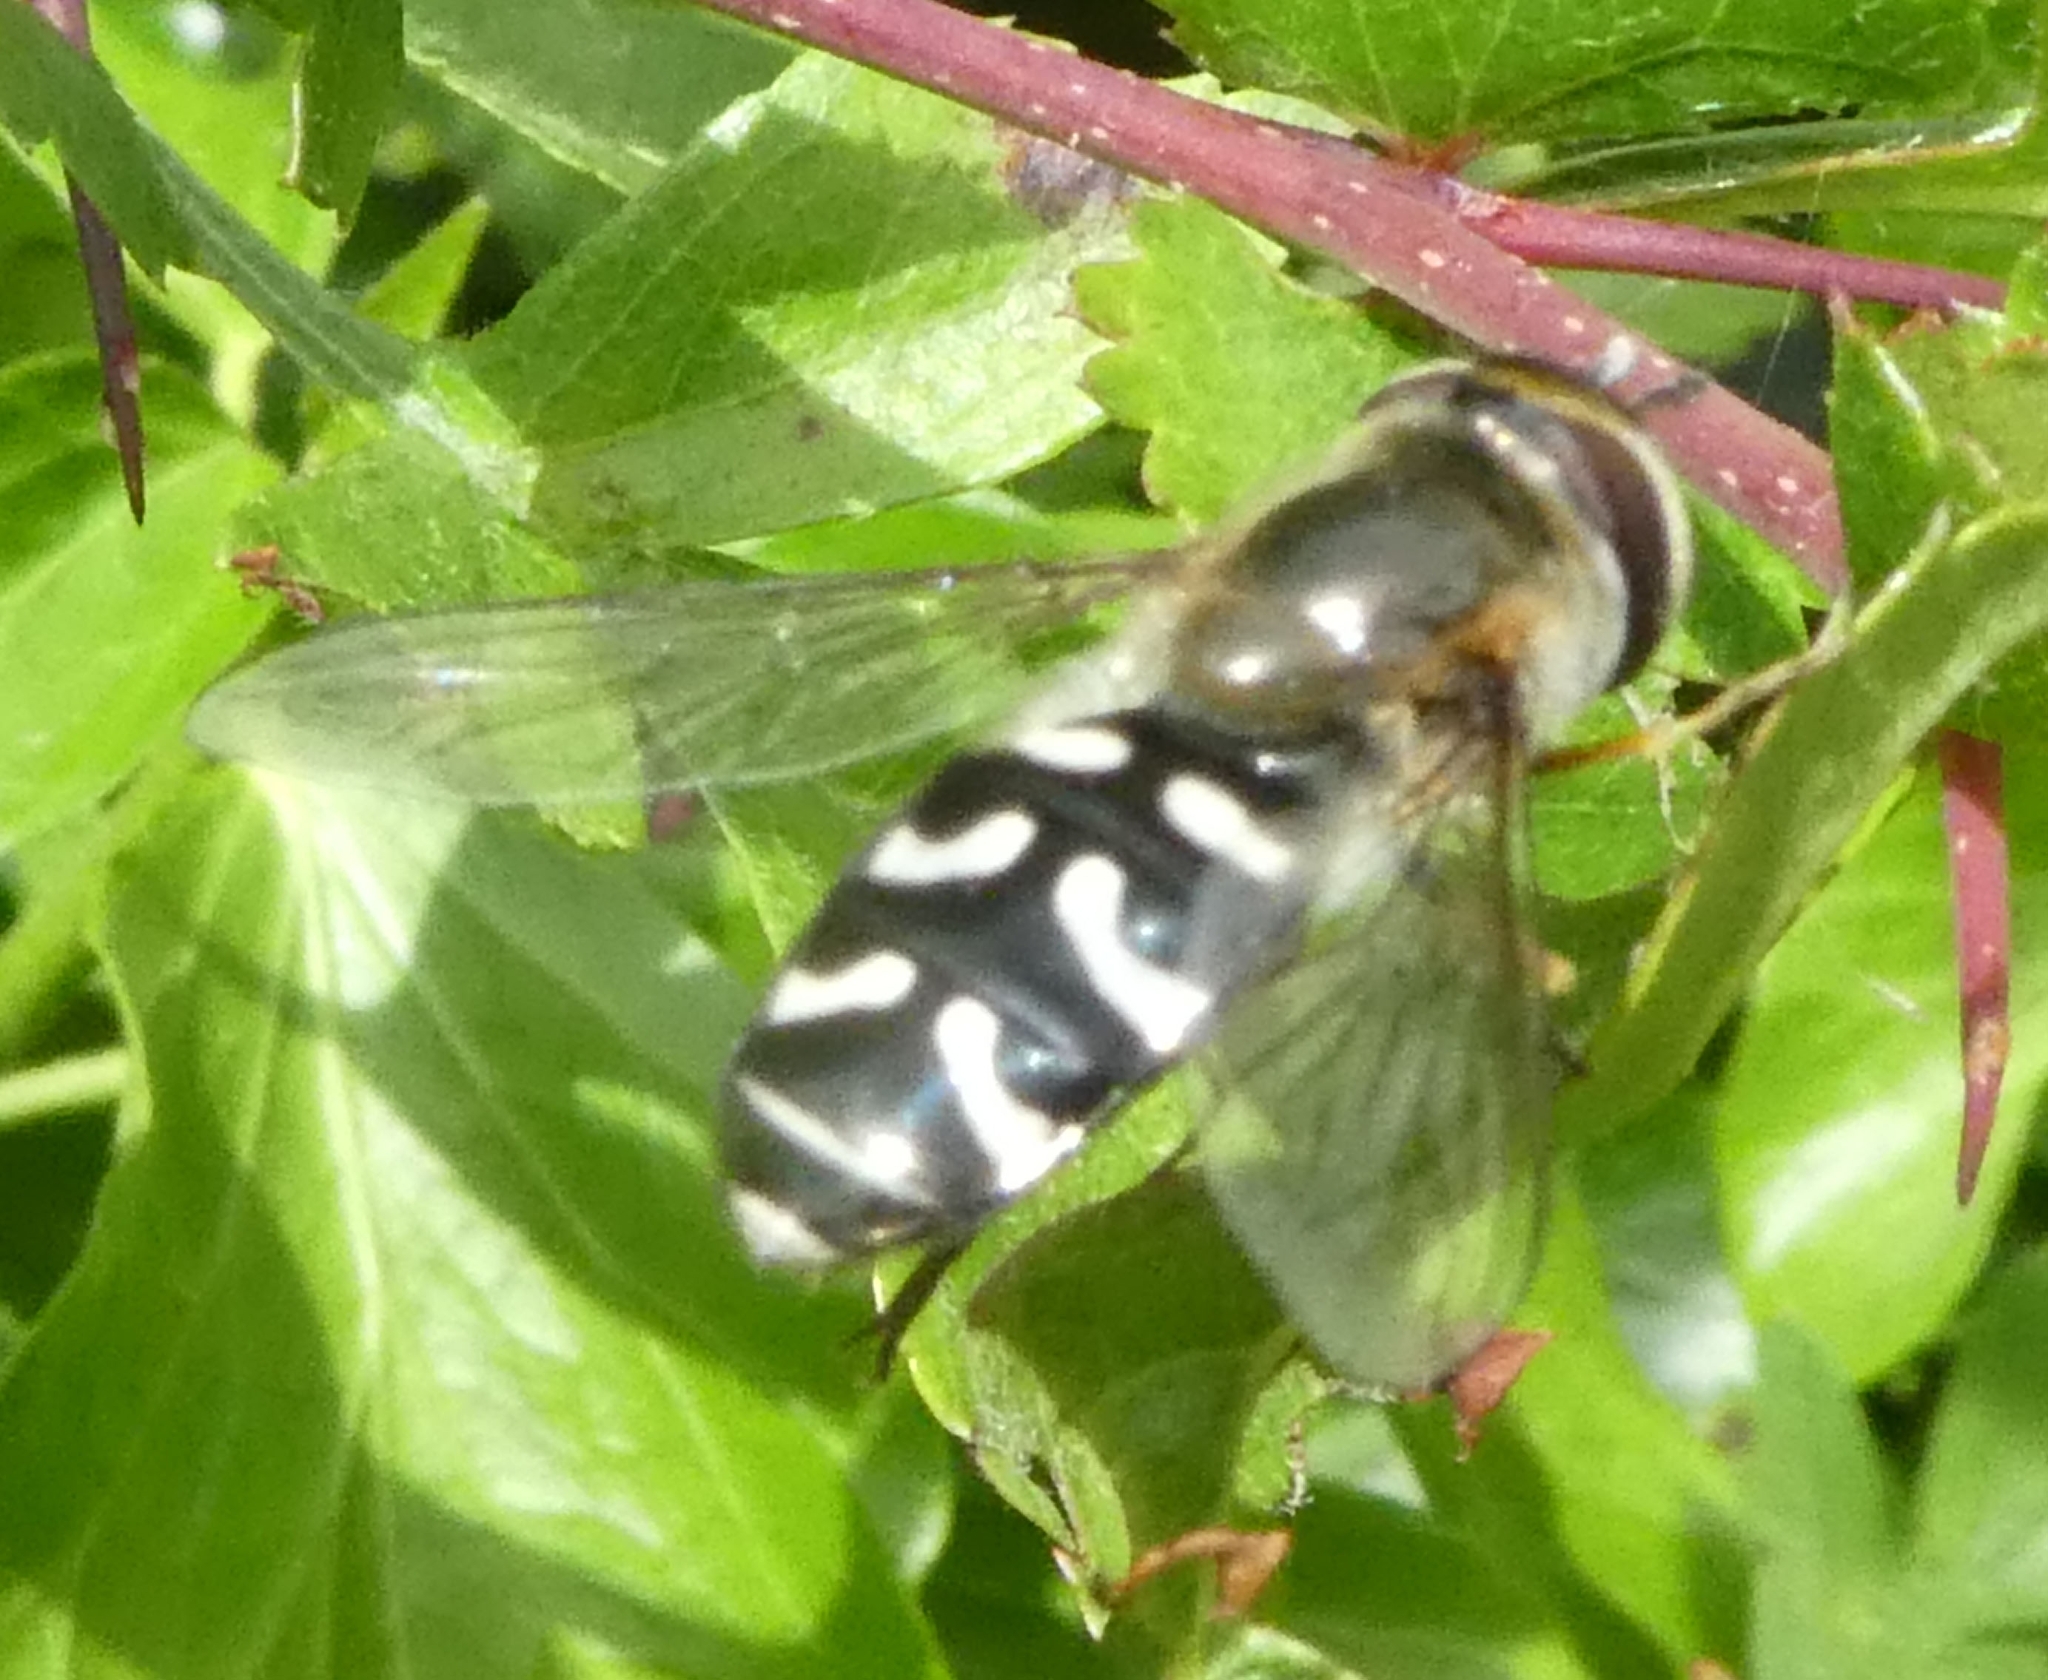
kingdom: Animalia
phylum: Arthropoda
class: Insecta
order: Diptera
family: Syrphidae
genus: Scaeva
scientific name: Scaeva pyrastri
